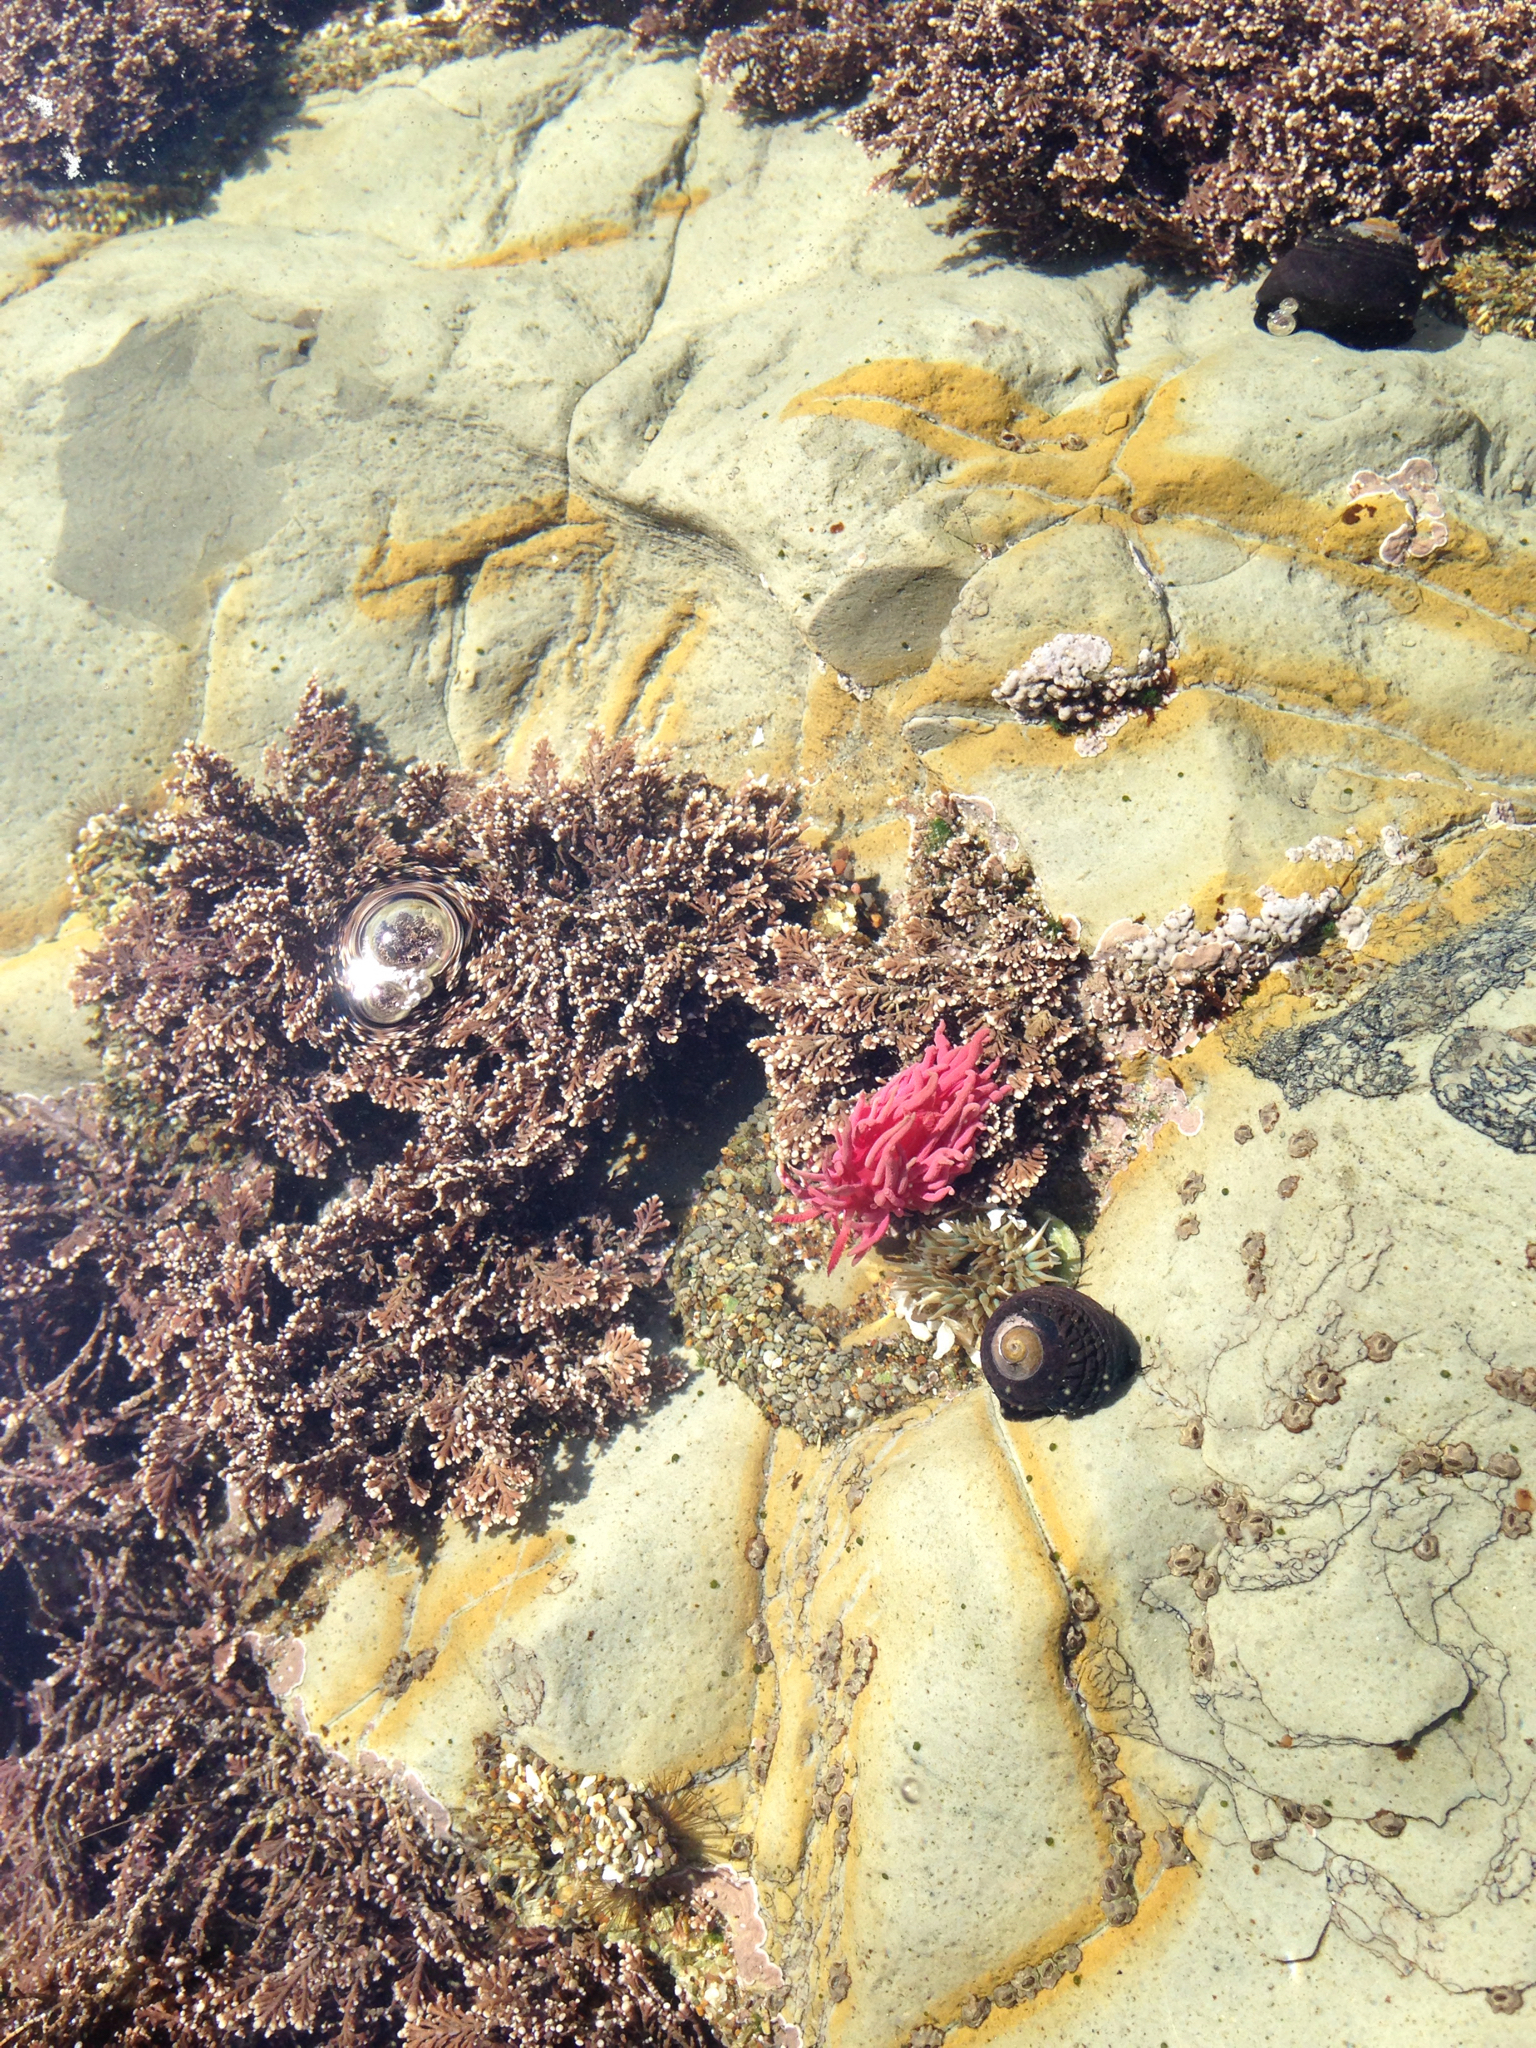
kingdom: Animalia
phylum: Mollusca
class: Gastropoda
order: Nudibranchia
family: Goniodorididae
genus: Okenia
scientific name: Okenia
